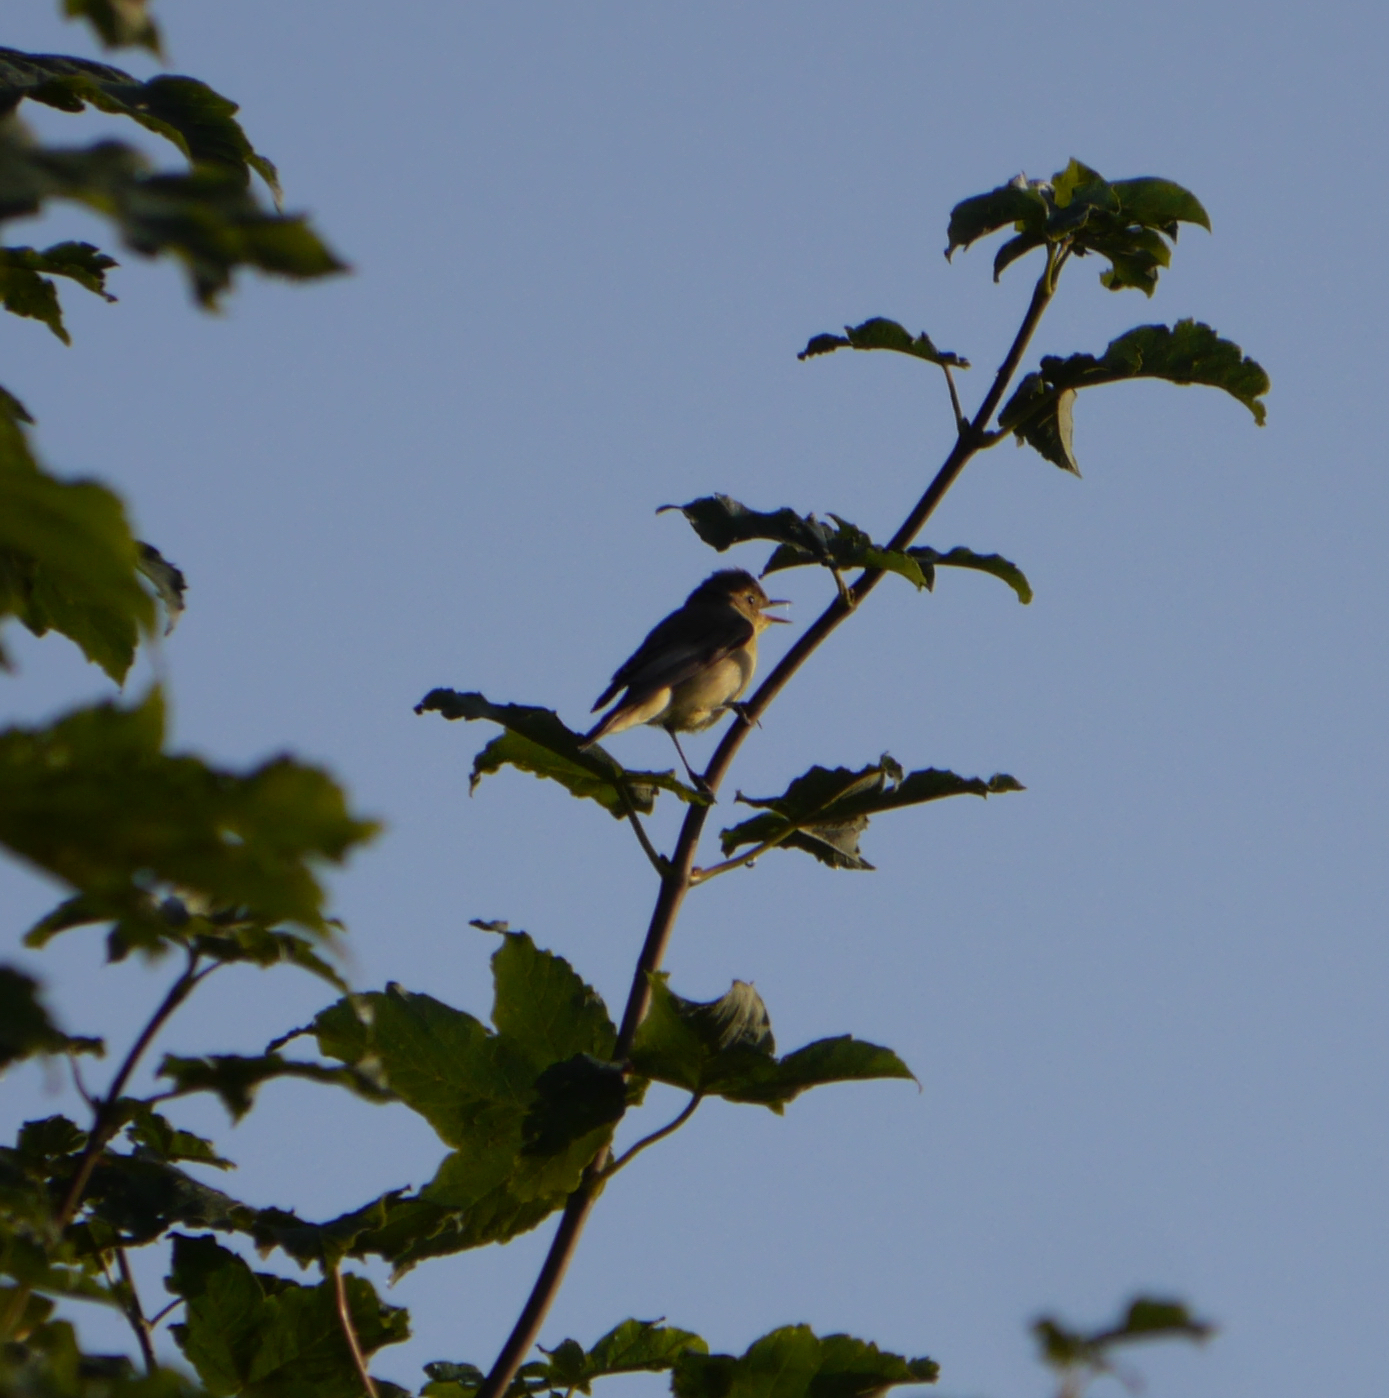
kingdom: Animalia
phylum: Chordata
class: Aves
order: Passeriformes
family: Acrocephalidae
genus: Hippolais
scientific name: Hippolais icterina
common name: Icterine warbler
